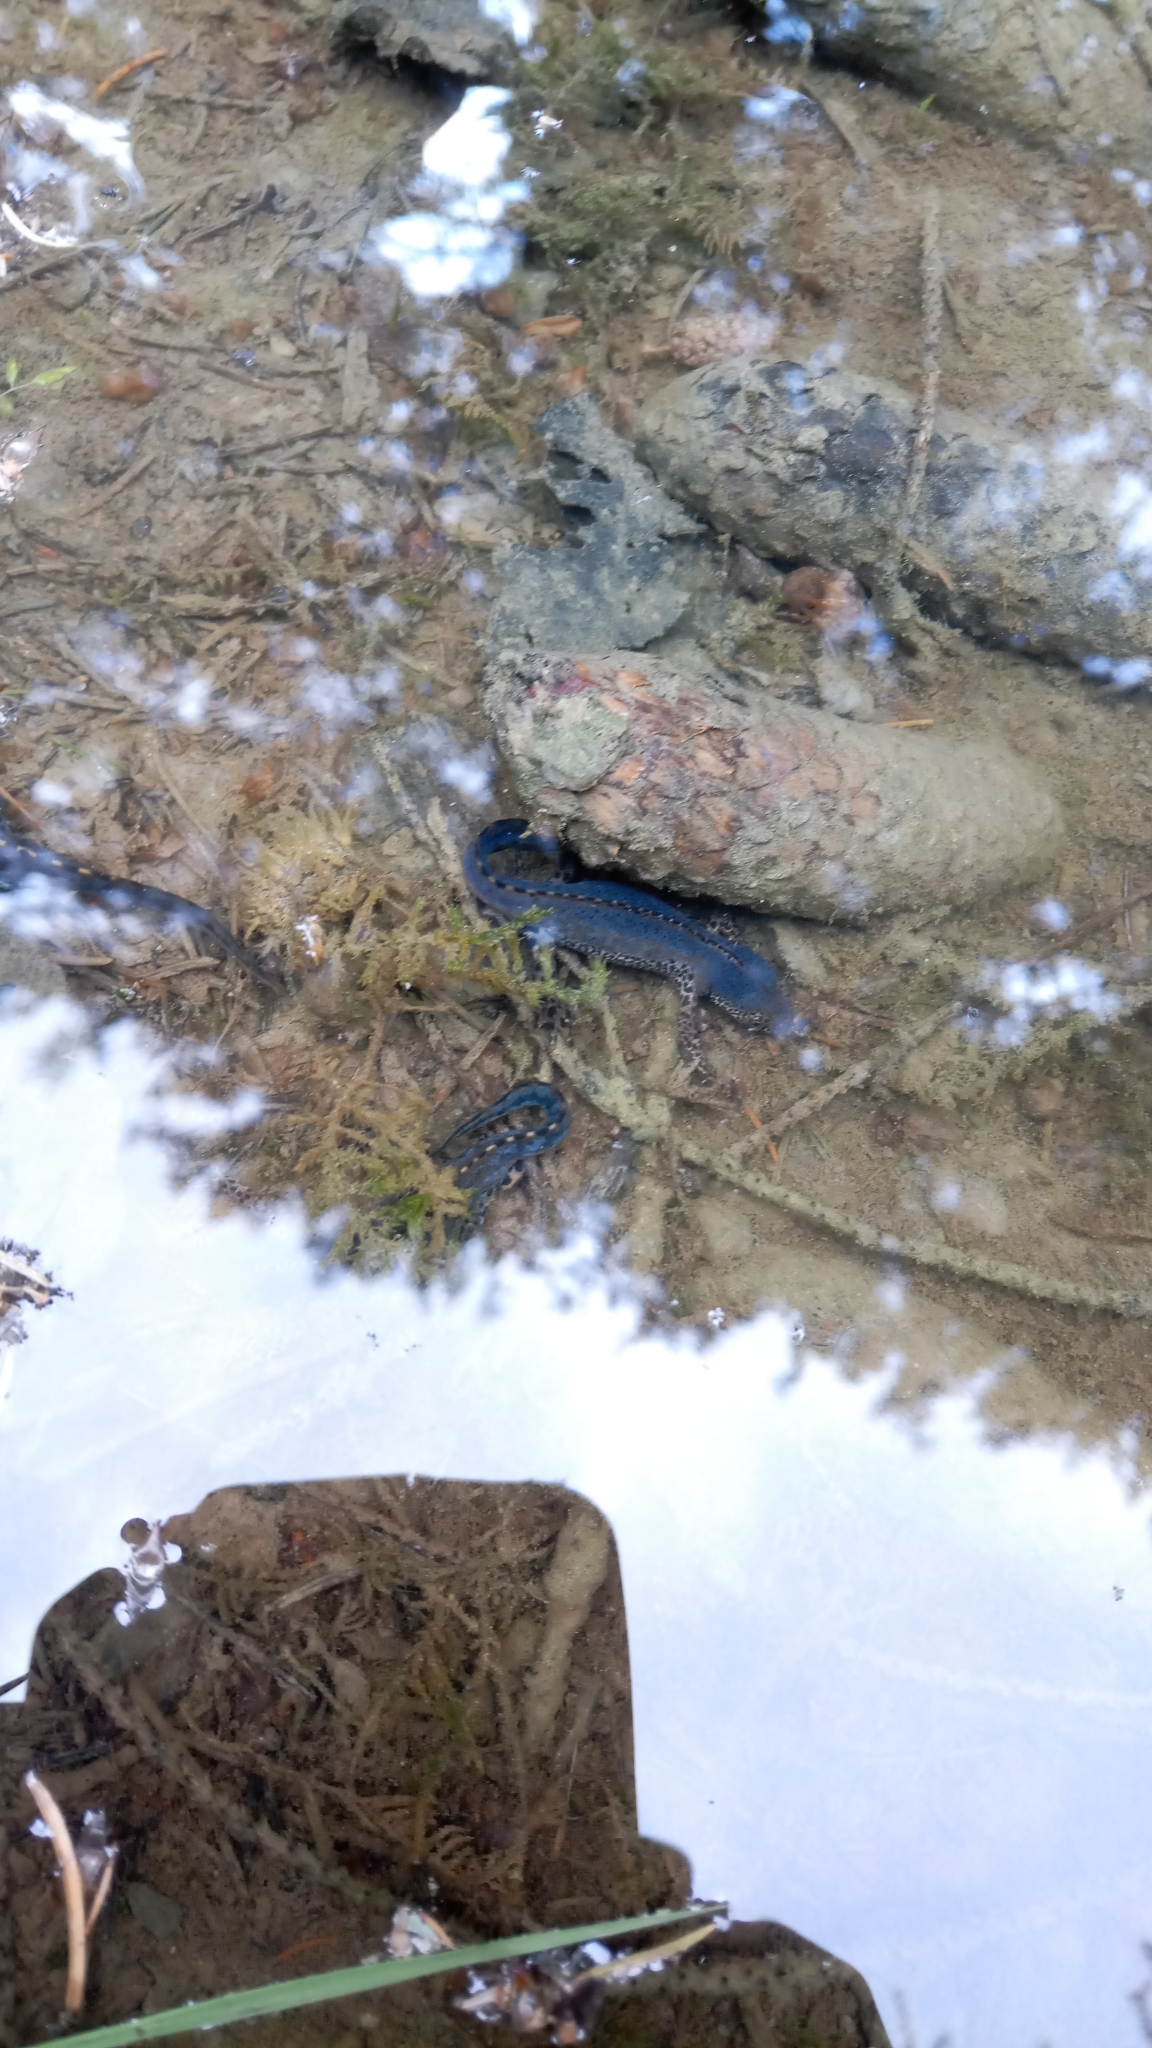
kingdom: Animalia
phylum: Chordata
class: Amphibia
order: Caudata
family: Salamandridae
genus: Ichthyosaura
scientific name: Ichthyosaura alpestris
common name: Alpine newt
